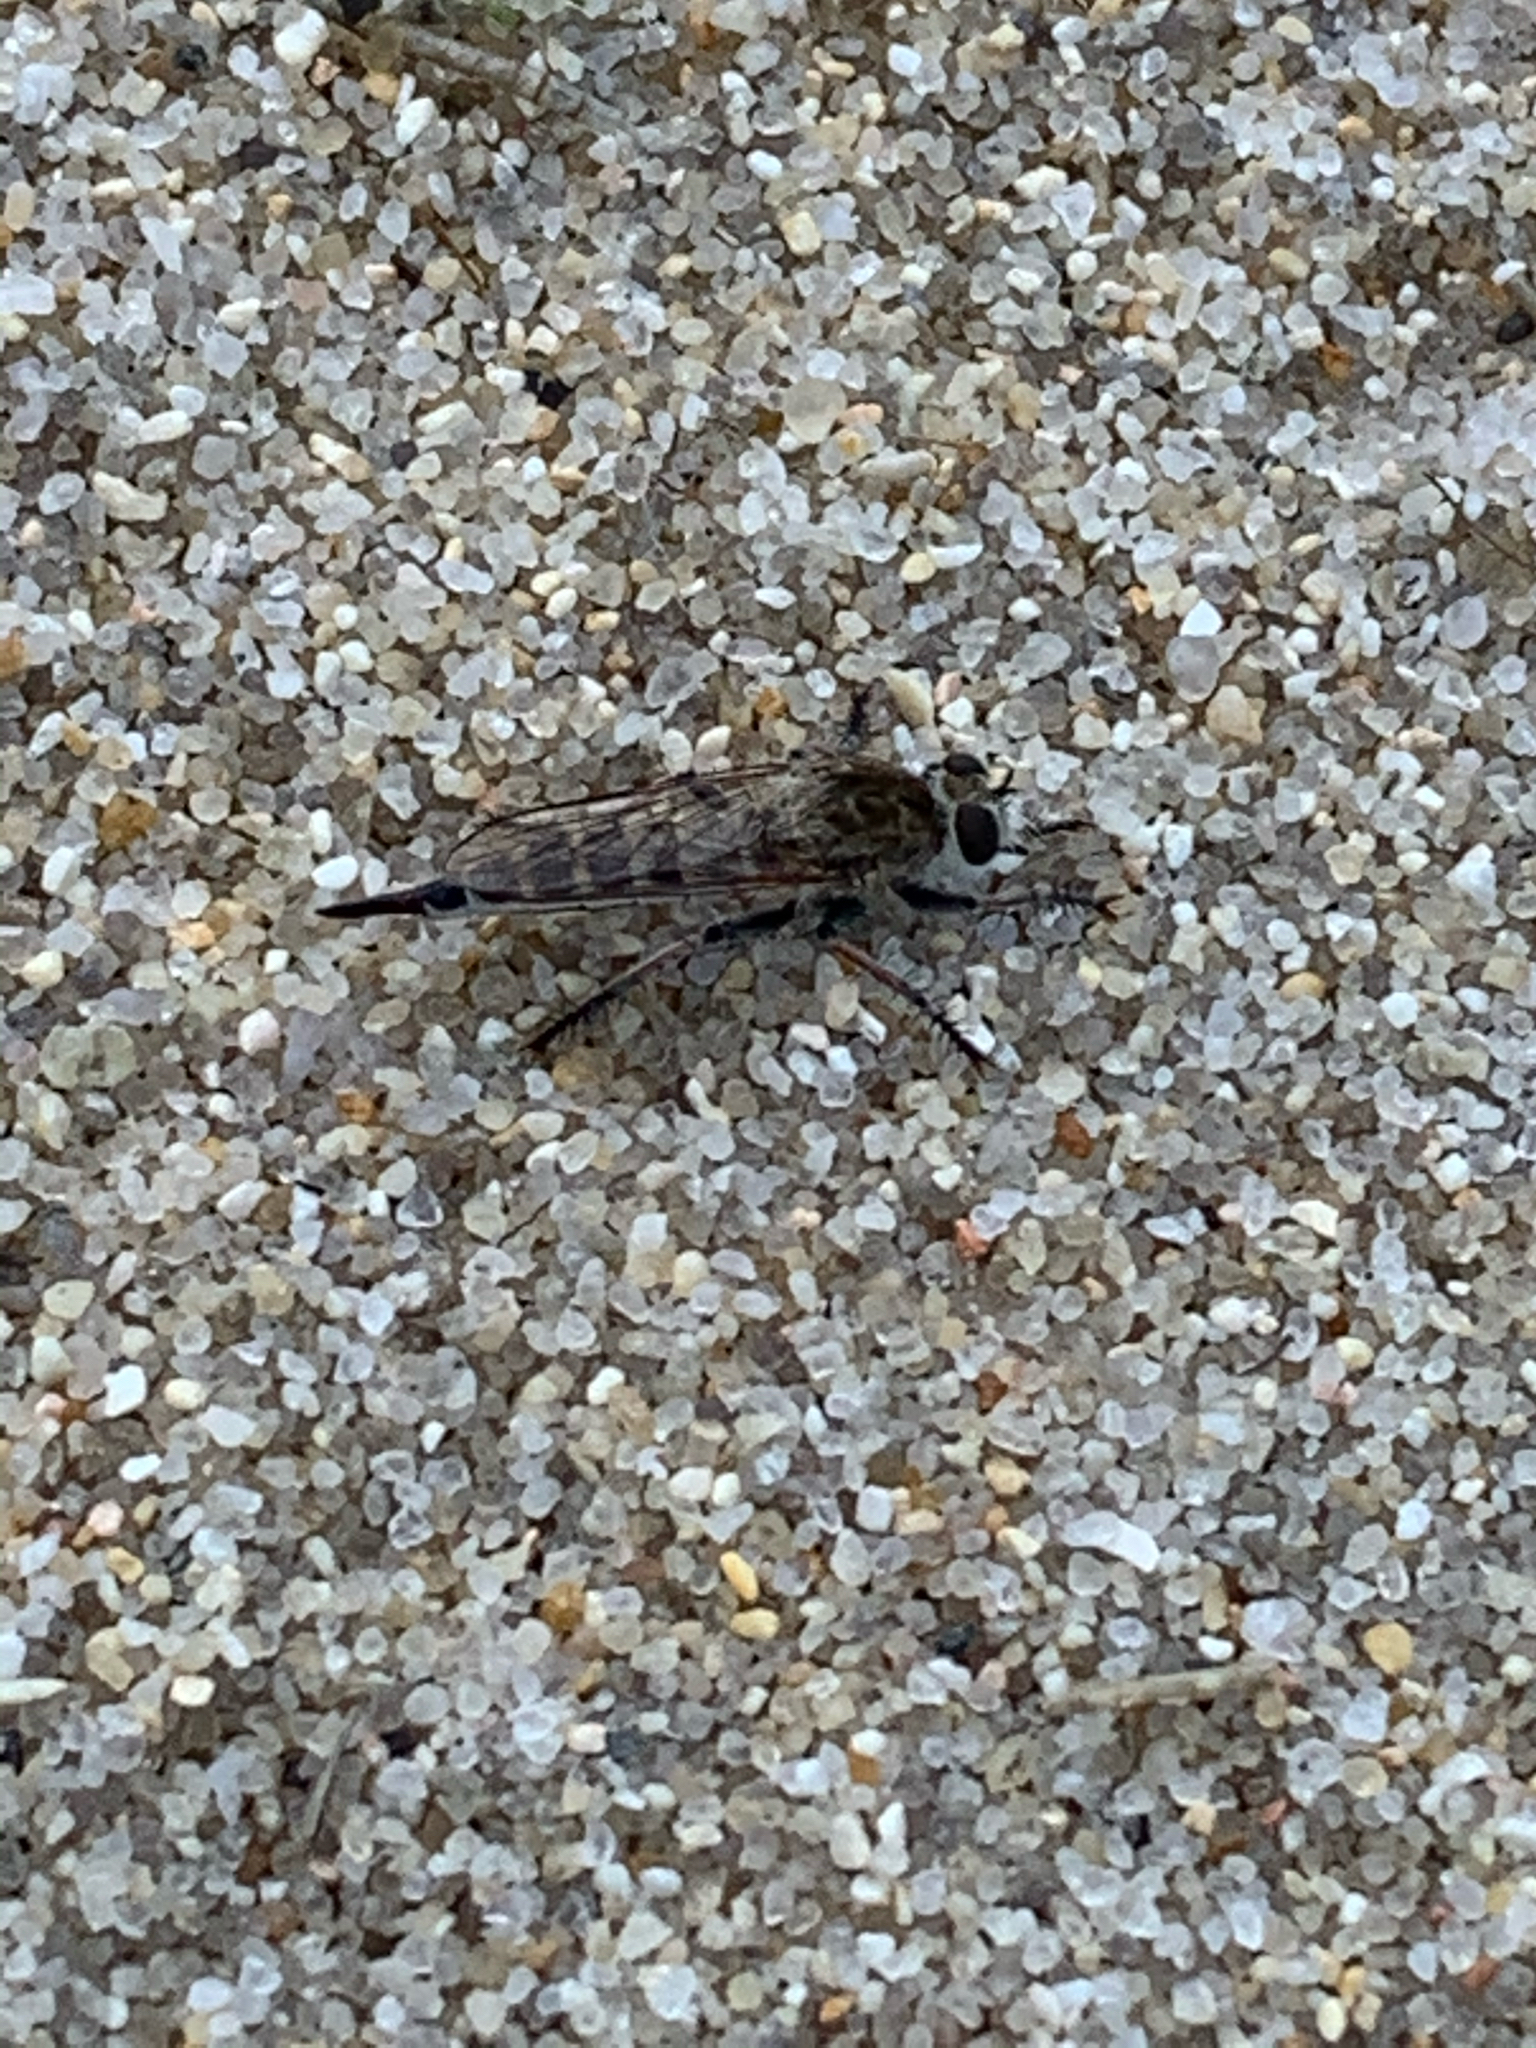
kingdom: Animalia
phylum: Arthropoda
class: Insecta
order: Diptera
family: Asilidae
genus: Efferia
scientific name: Efferia albibarbis
